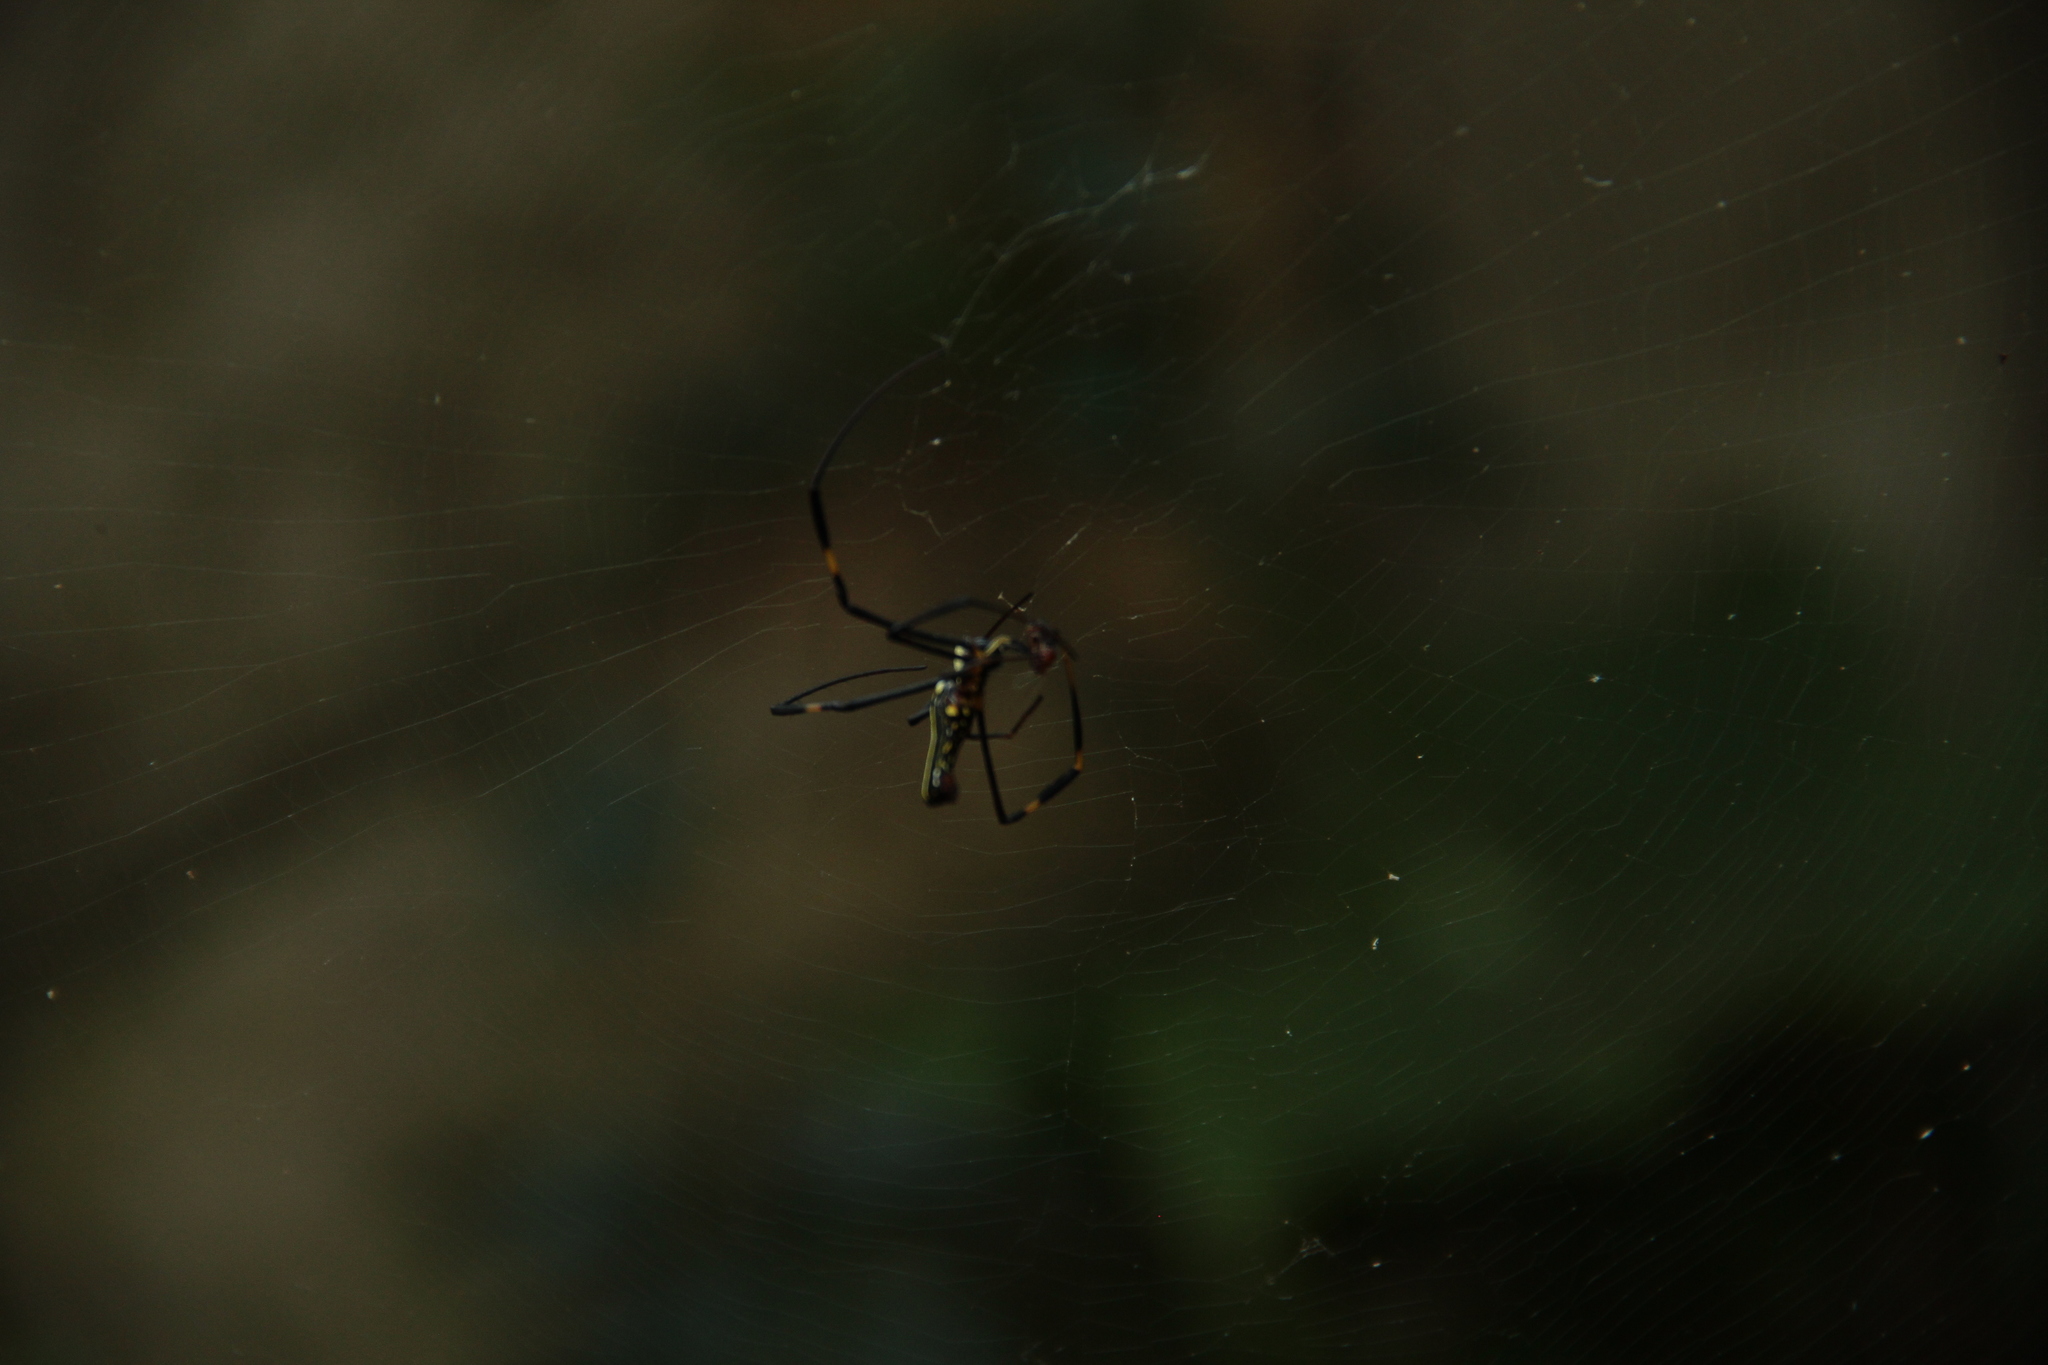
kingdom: Animalia
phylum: Arthropoda
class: Arachnida
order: Araneae
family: Araneidae
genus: Nephila
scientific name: Nephila pilipes
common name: Giant golden orb weaver
